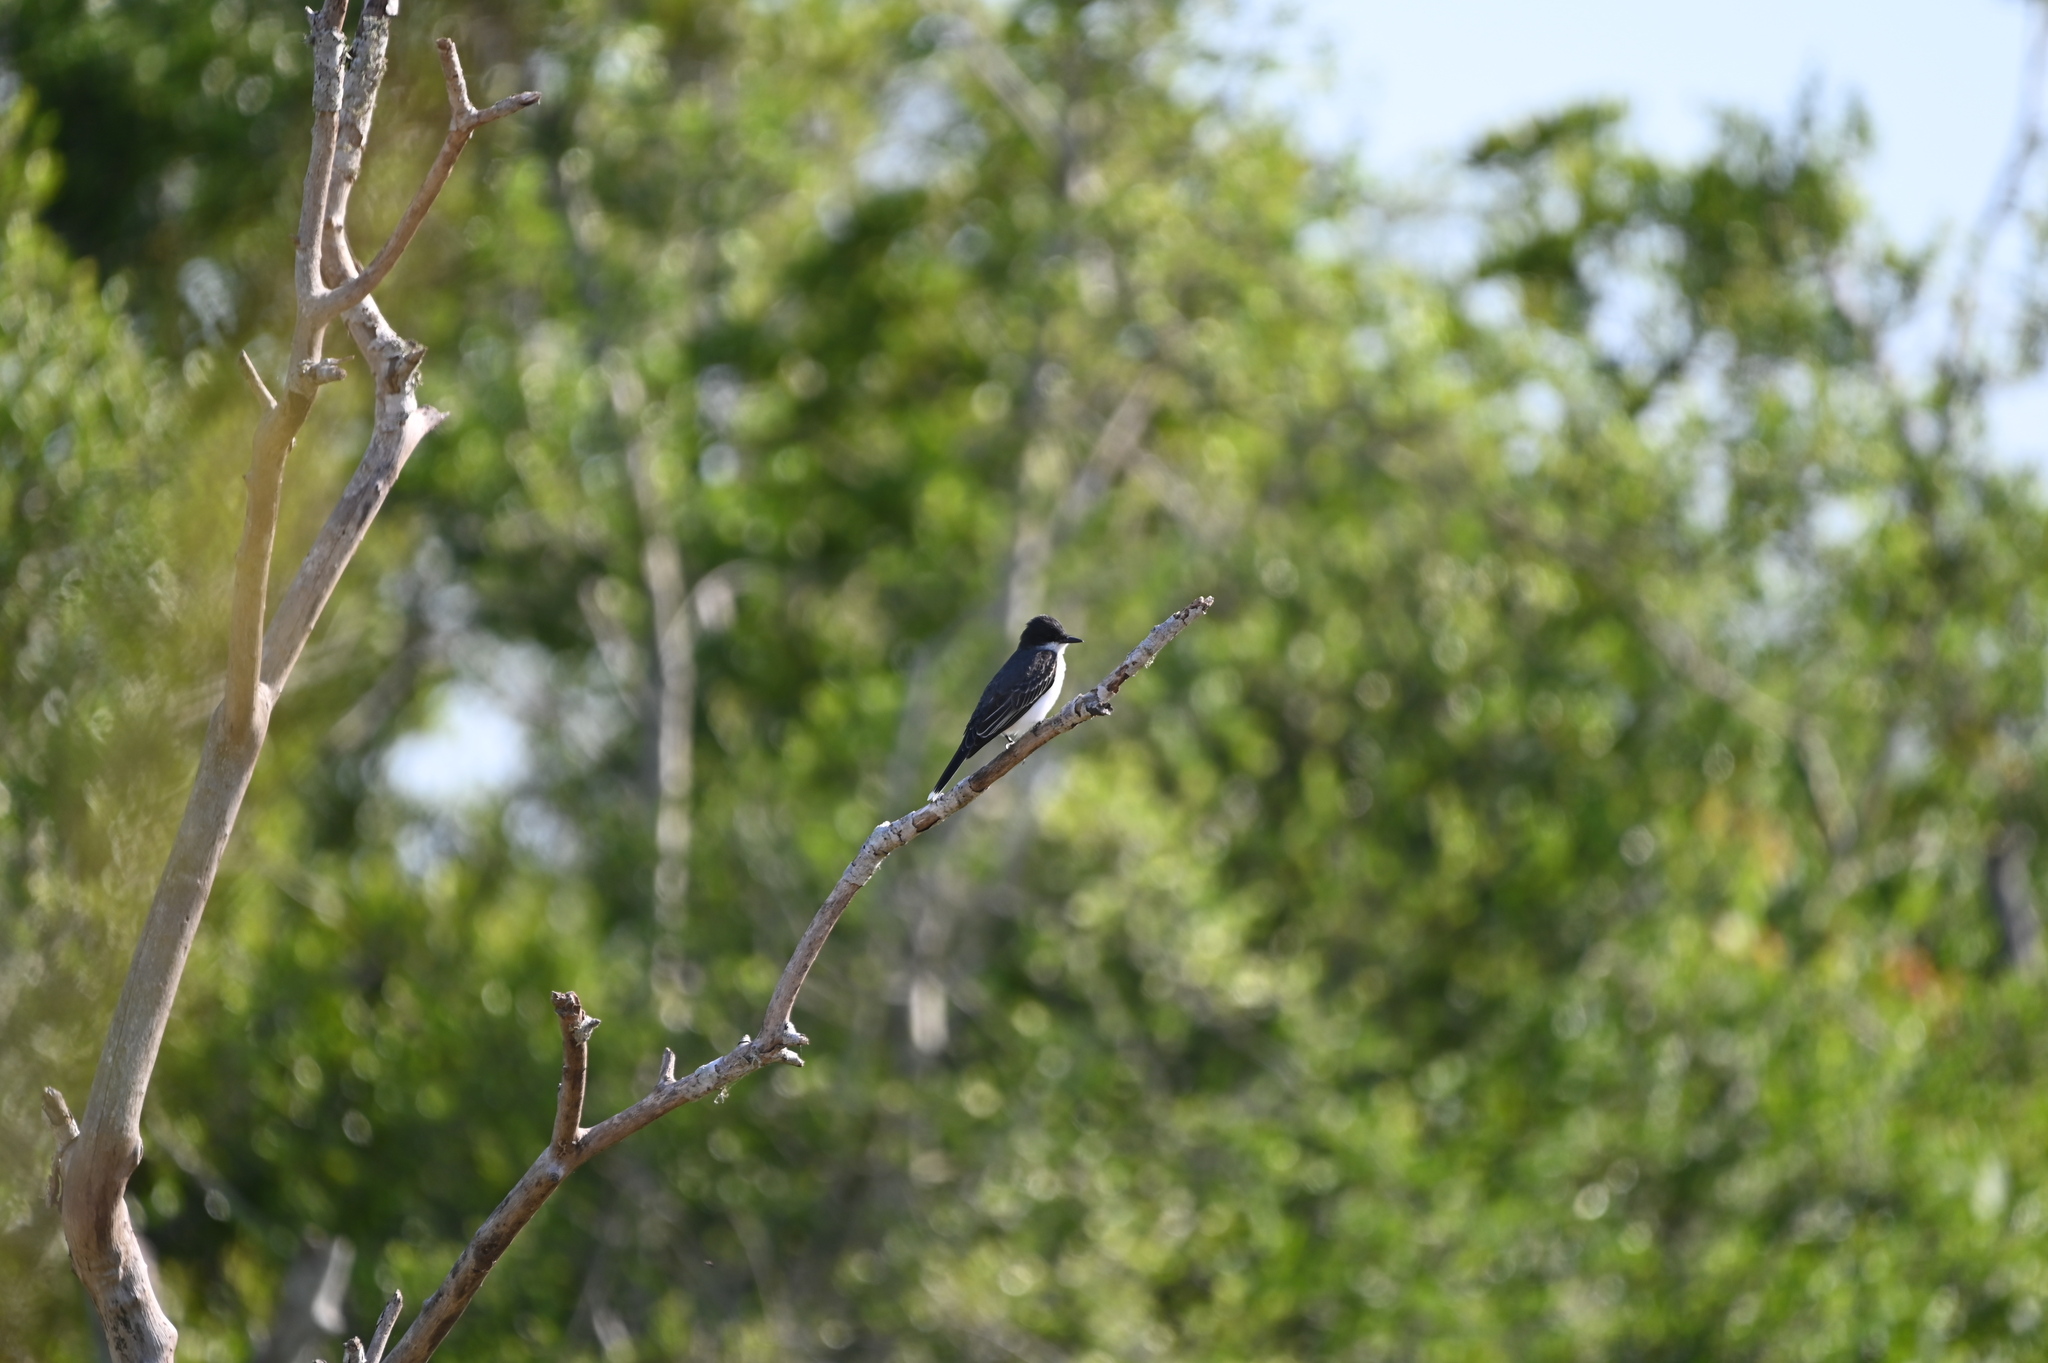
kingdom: Animalia
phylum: Chordata
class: Aves
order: Passeriformes
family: Tyrannidae
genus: Tyrannus
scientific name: Tyrannus tyrannus
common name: Eastern kingbird
